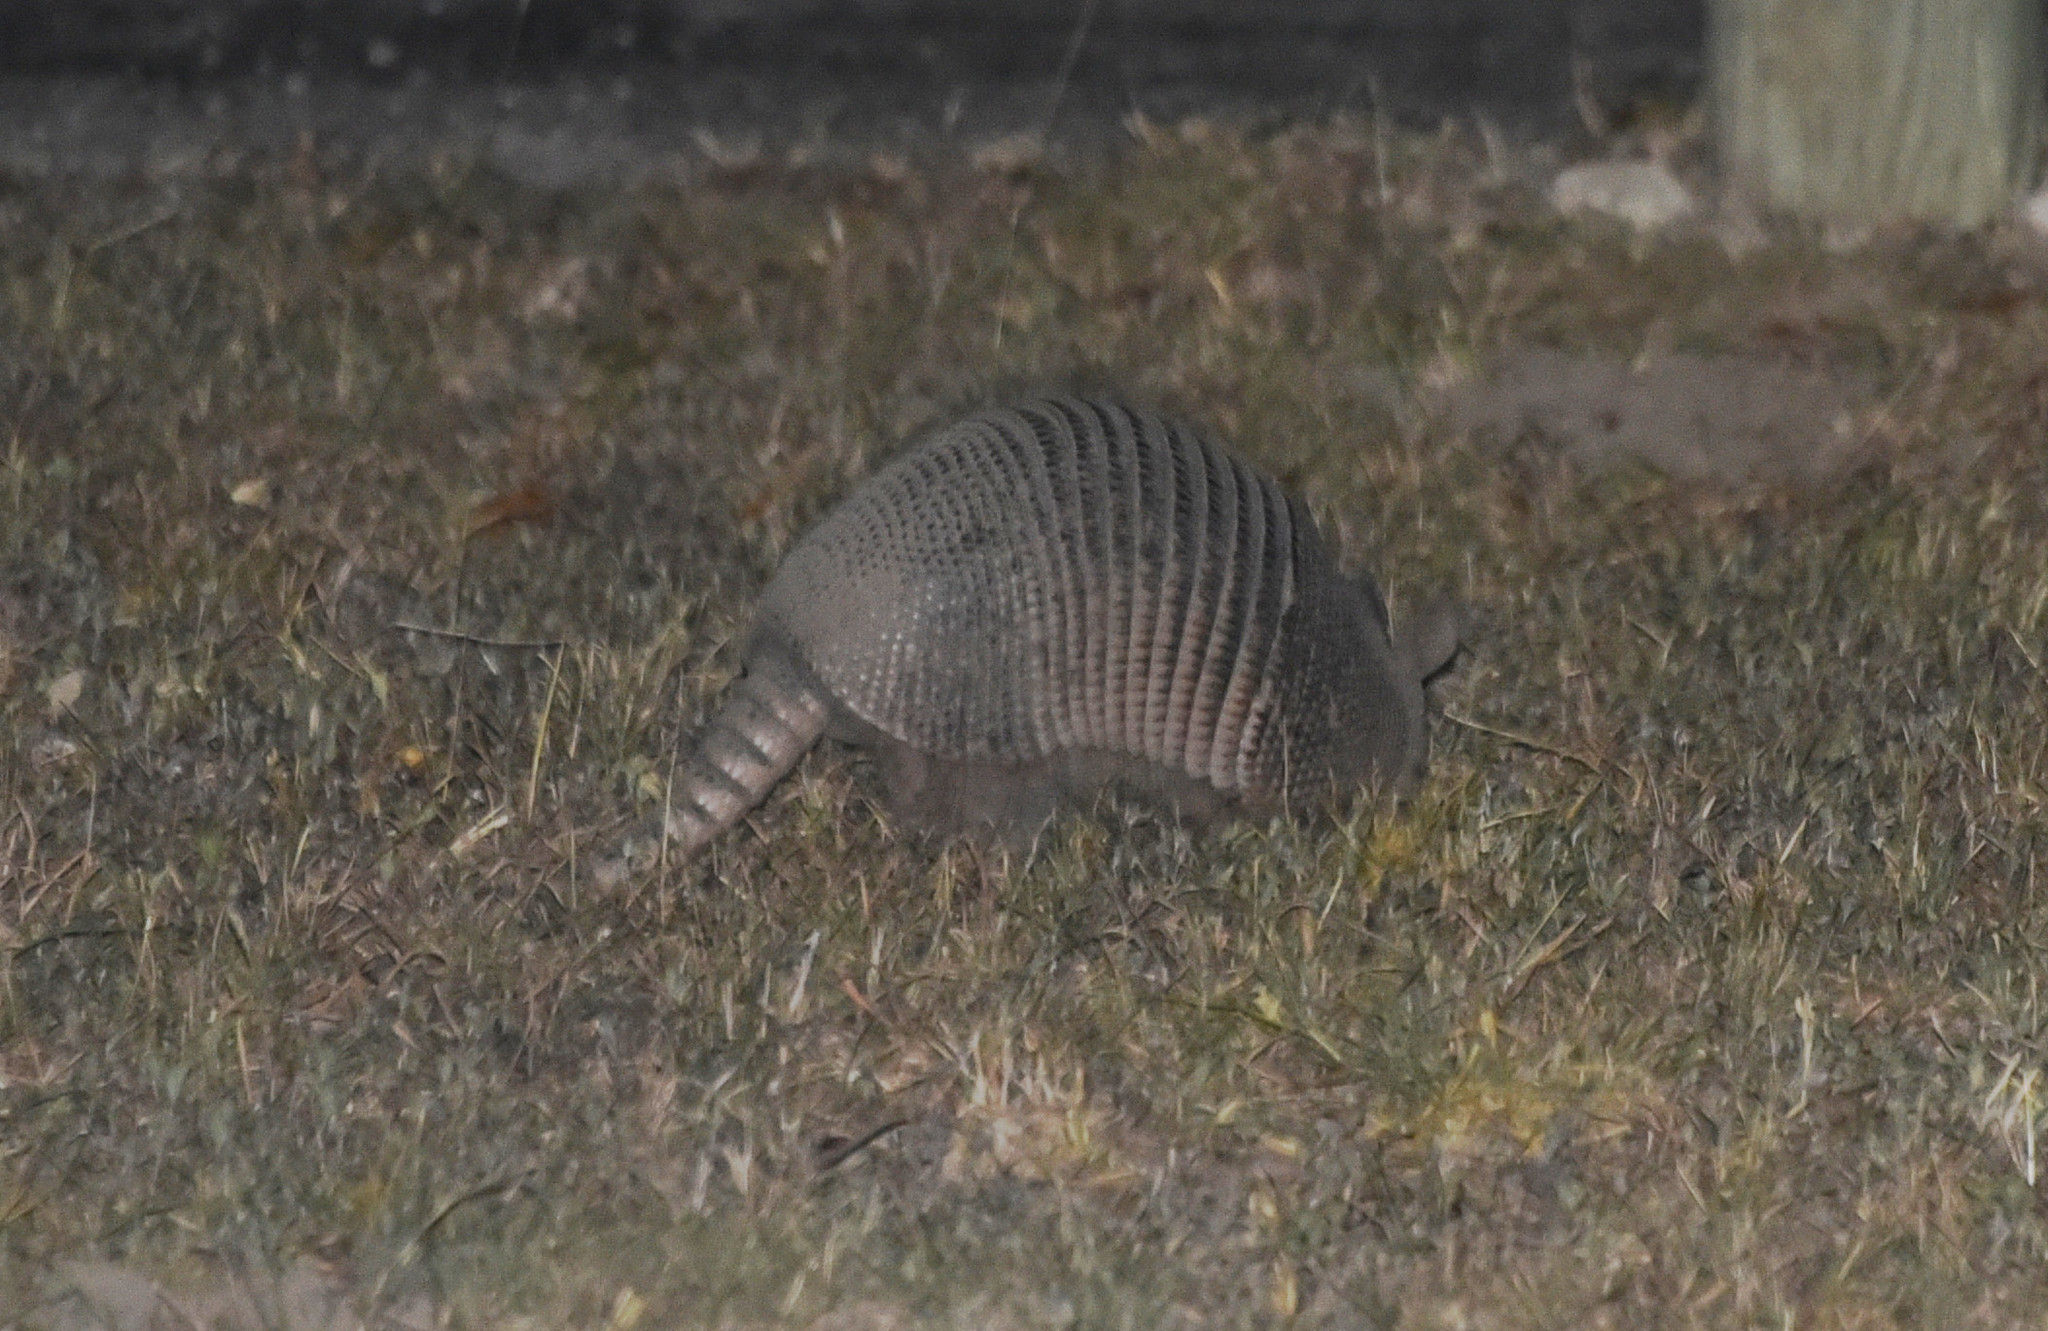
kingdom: Animalia
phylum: Chordata
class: Mammalia
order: Cingulata
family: Dasypodidae
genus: Dasypus
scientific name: Dasypus novemcinctus
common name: Nine-banded armadillo
